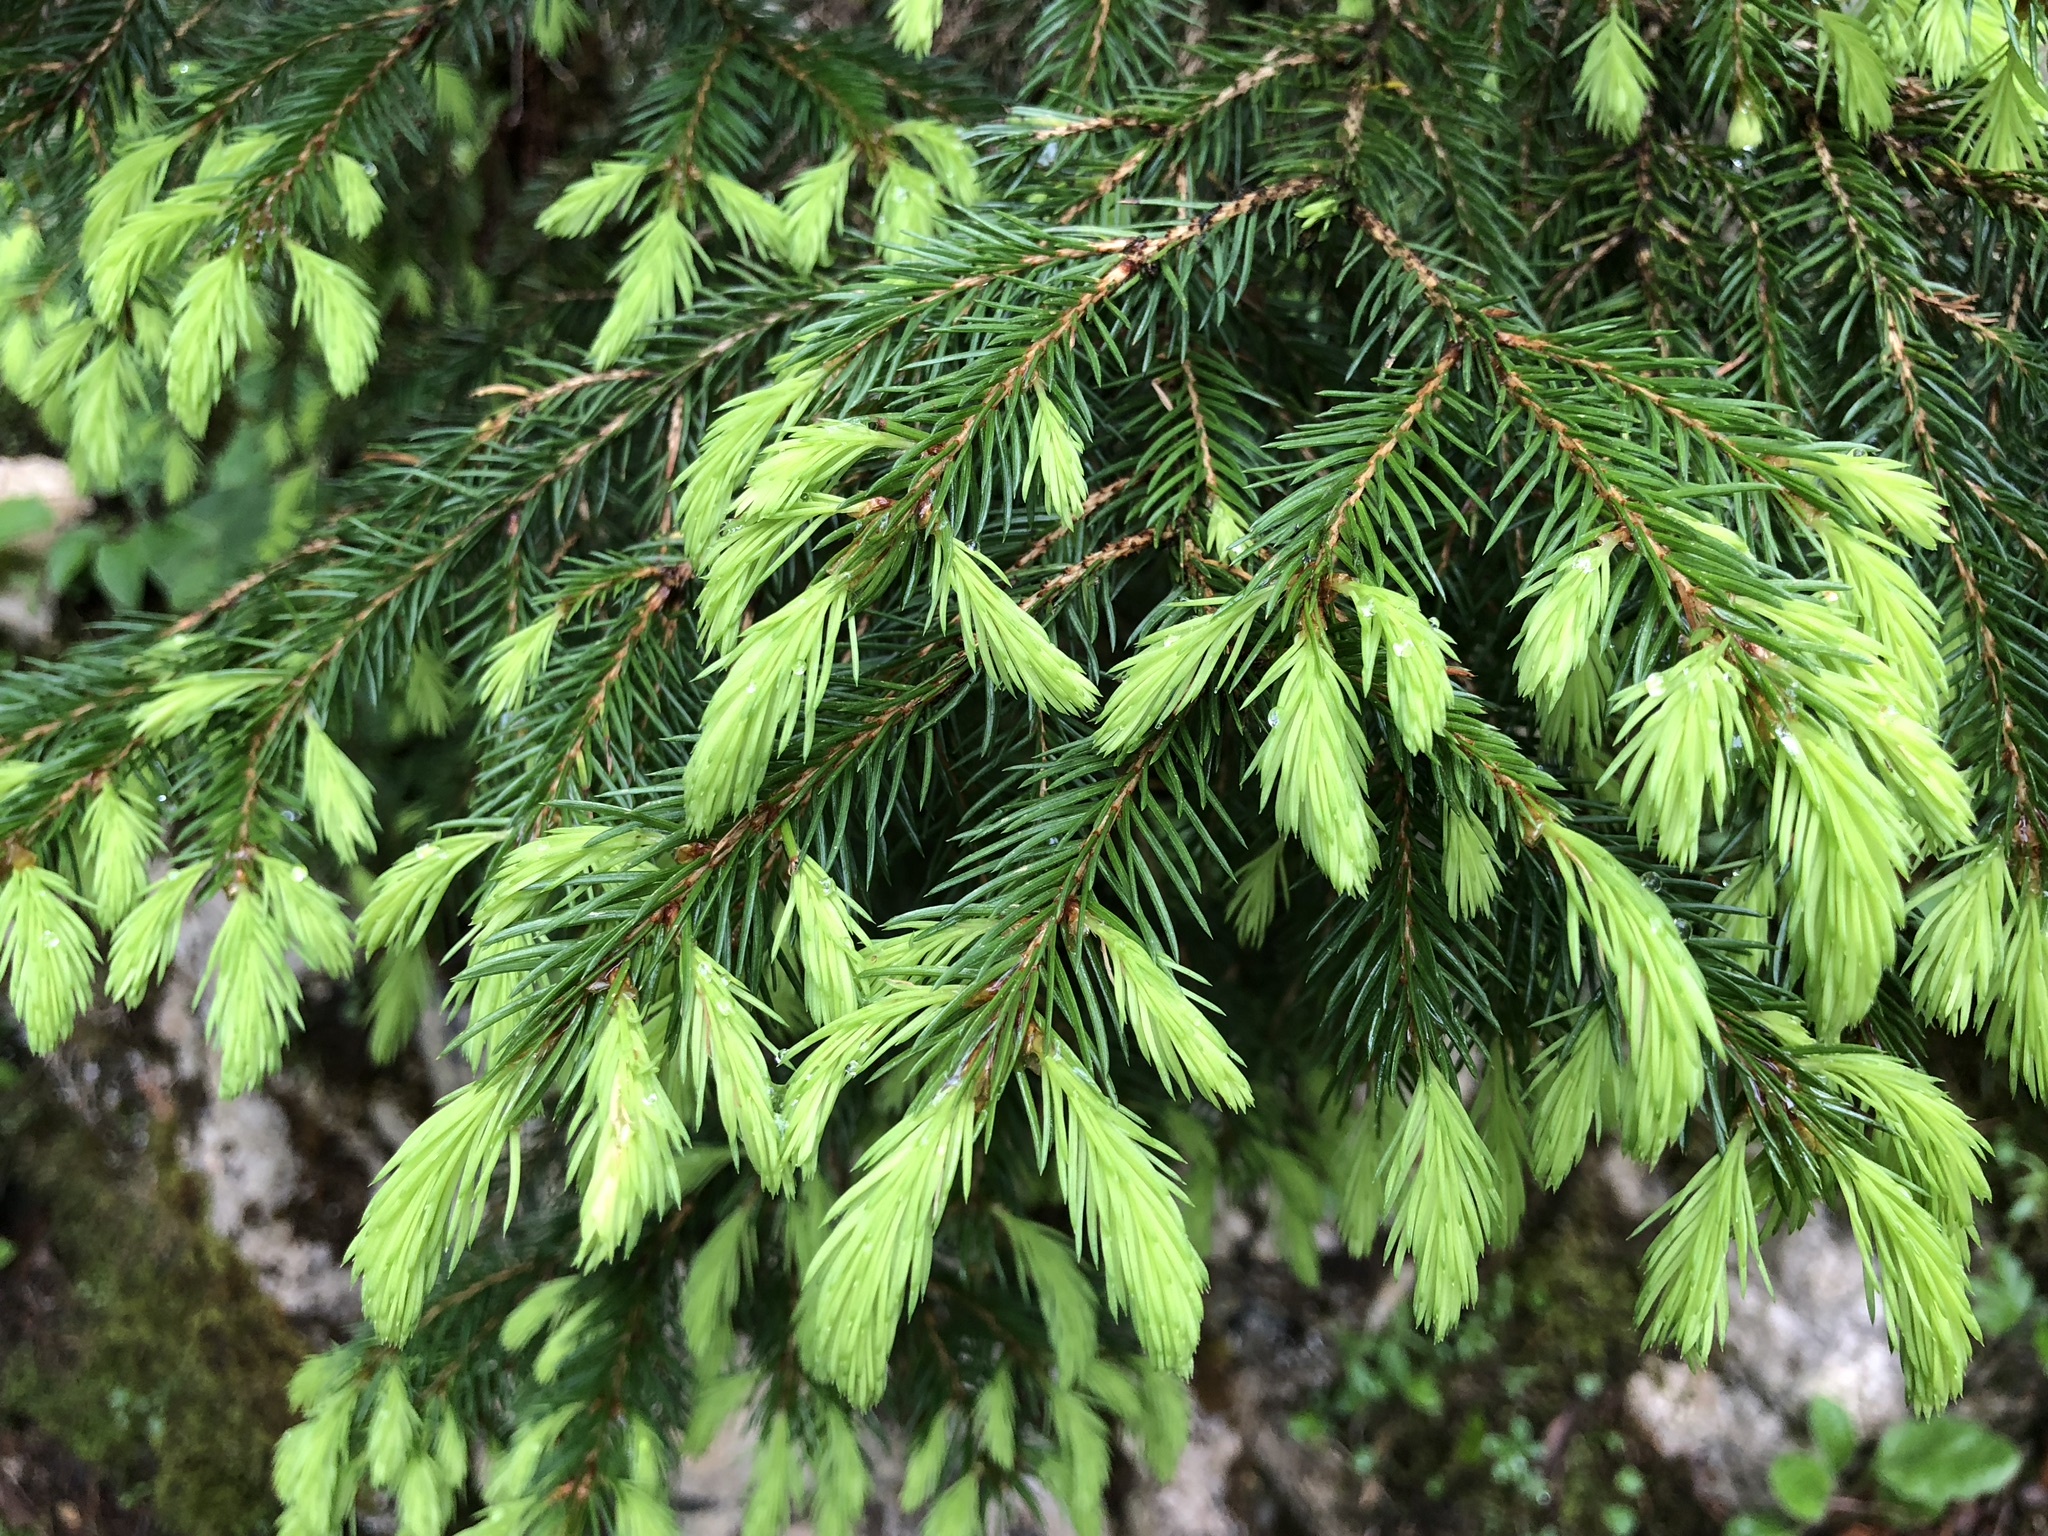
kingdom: Plantae
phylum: Tracheophyta
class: Pinopsida
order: Pinales
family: Pinaceae
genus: Picea
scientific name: Picea abies
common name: Norway spruce
